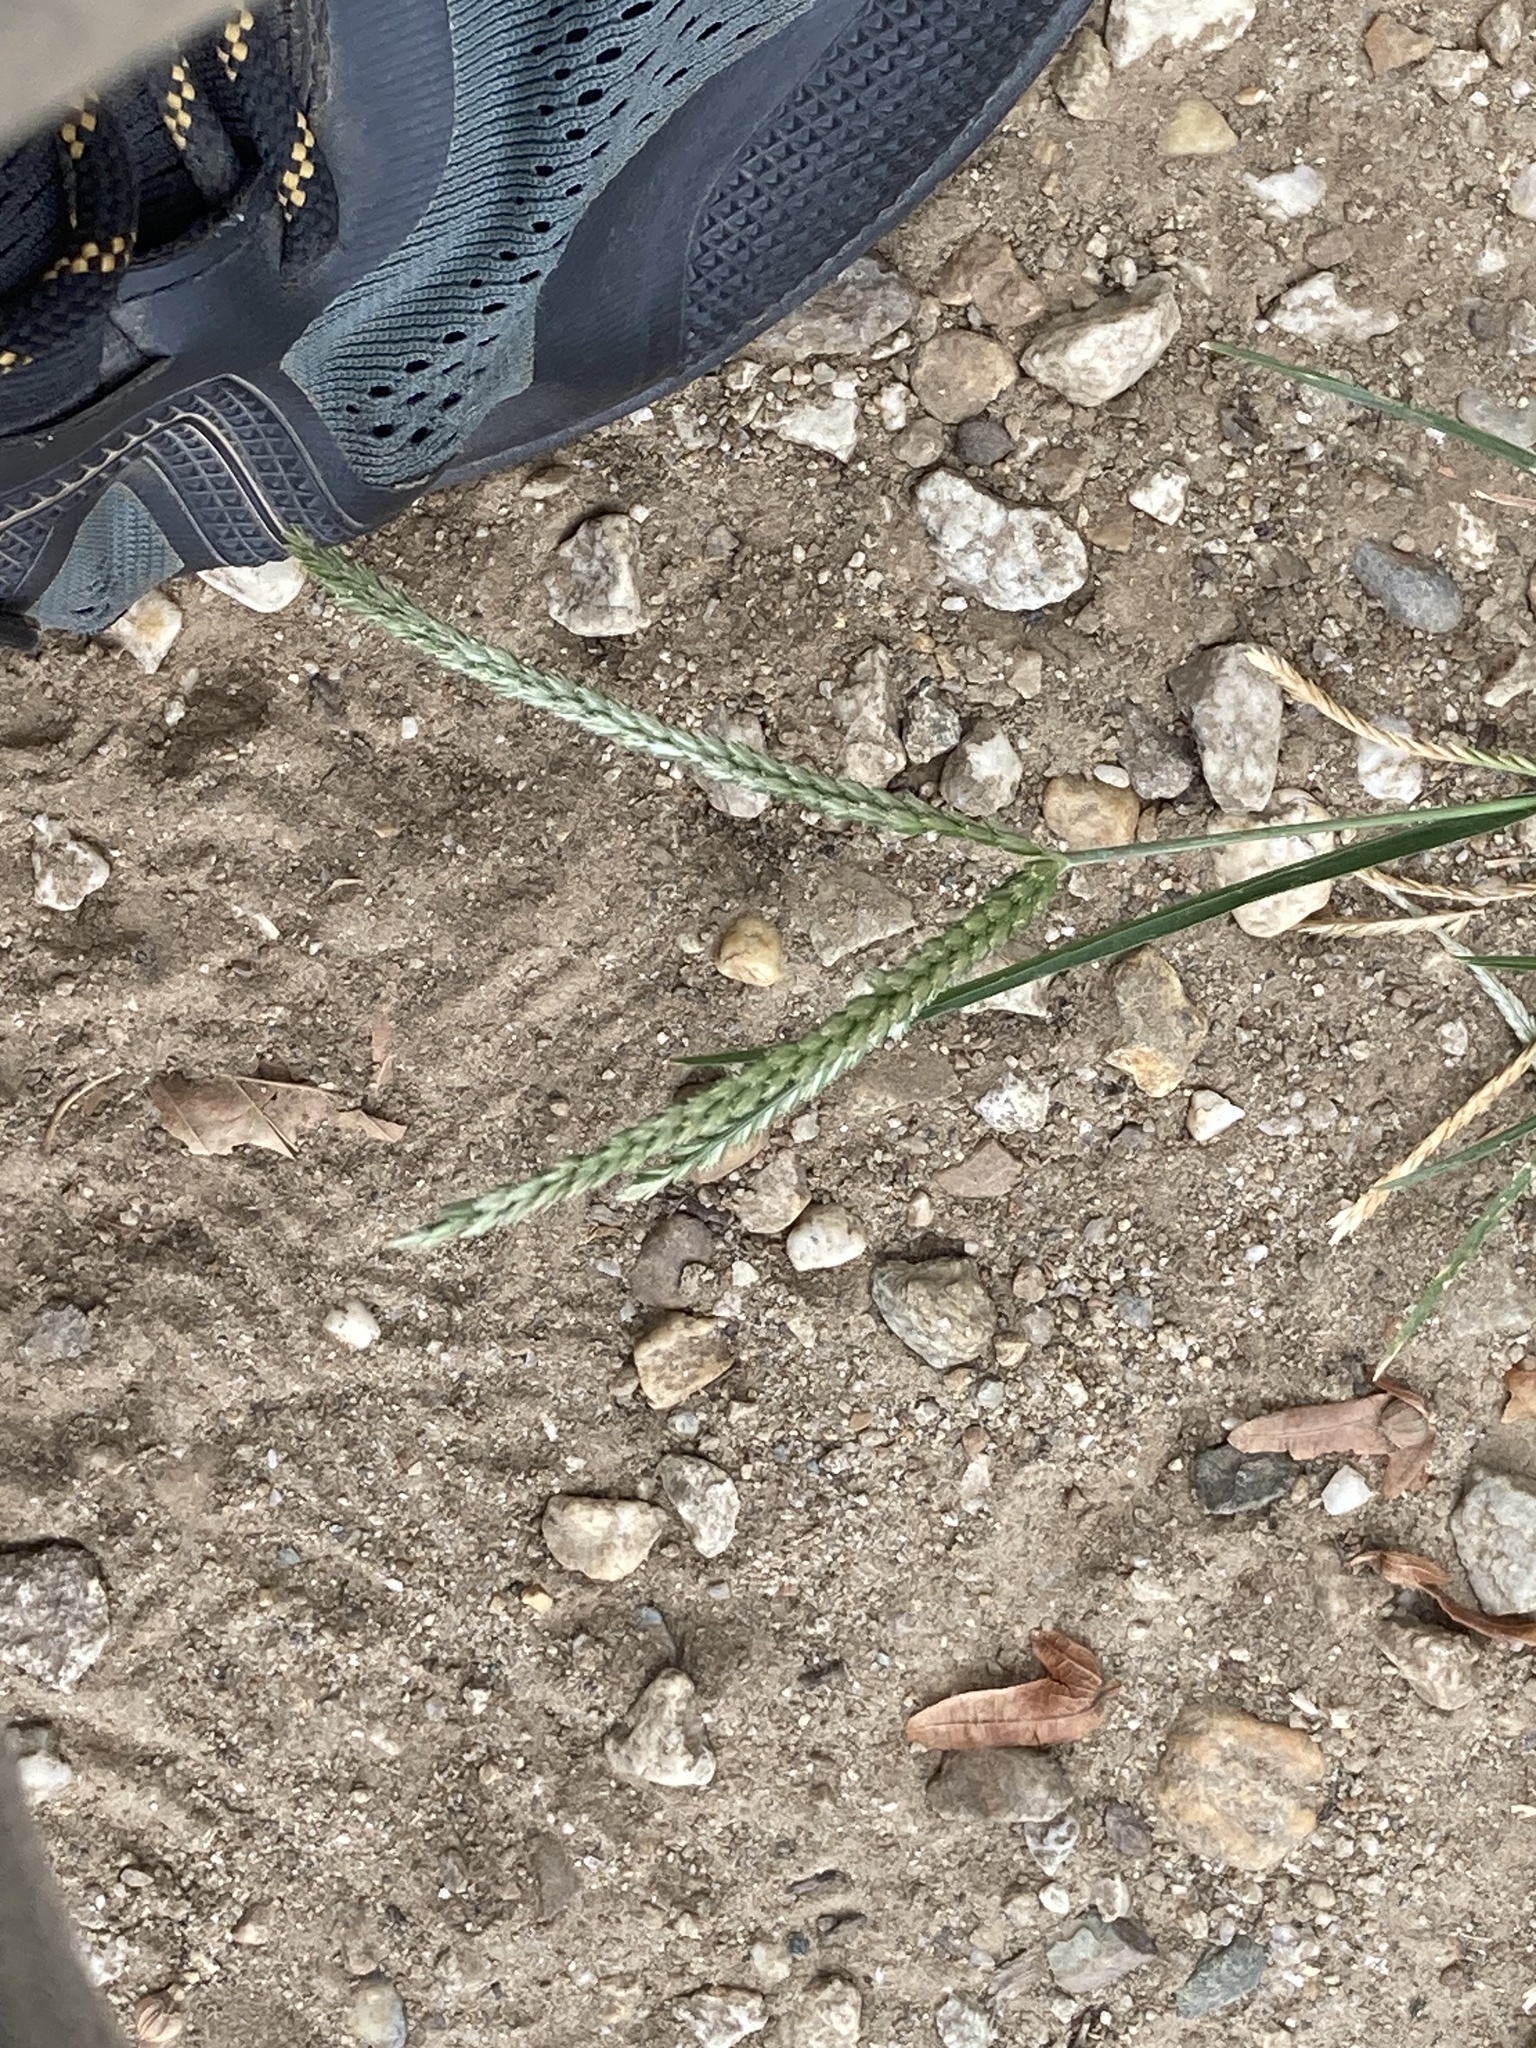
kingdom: Plantae
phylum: Tracheophyta
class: Liliopsida
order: Poales
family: Poaceae
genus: Eleusine
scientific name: Eleusine indica
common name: Yard-grass
